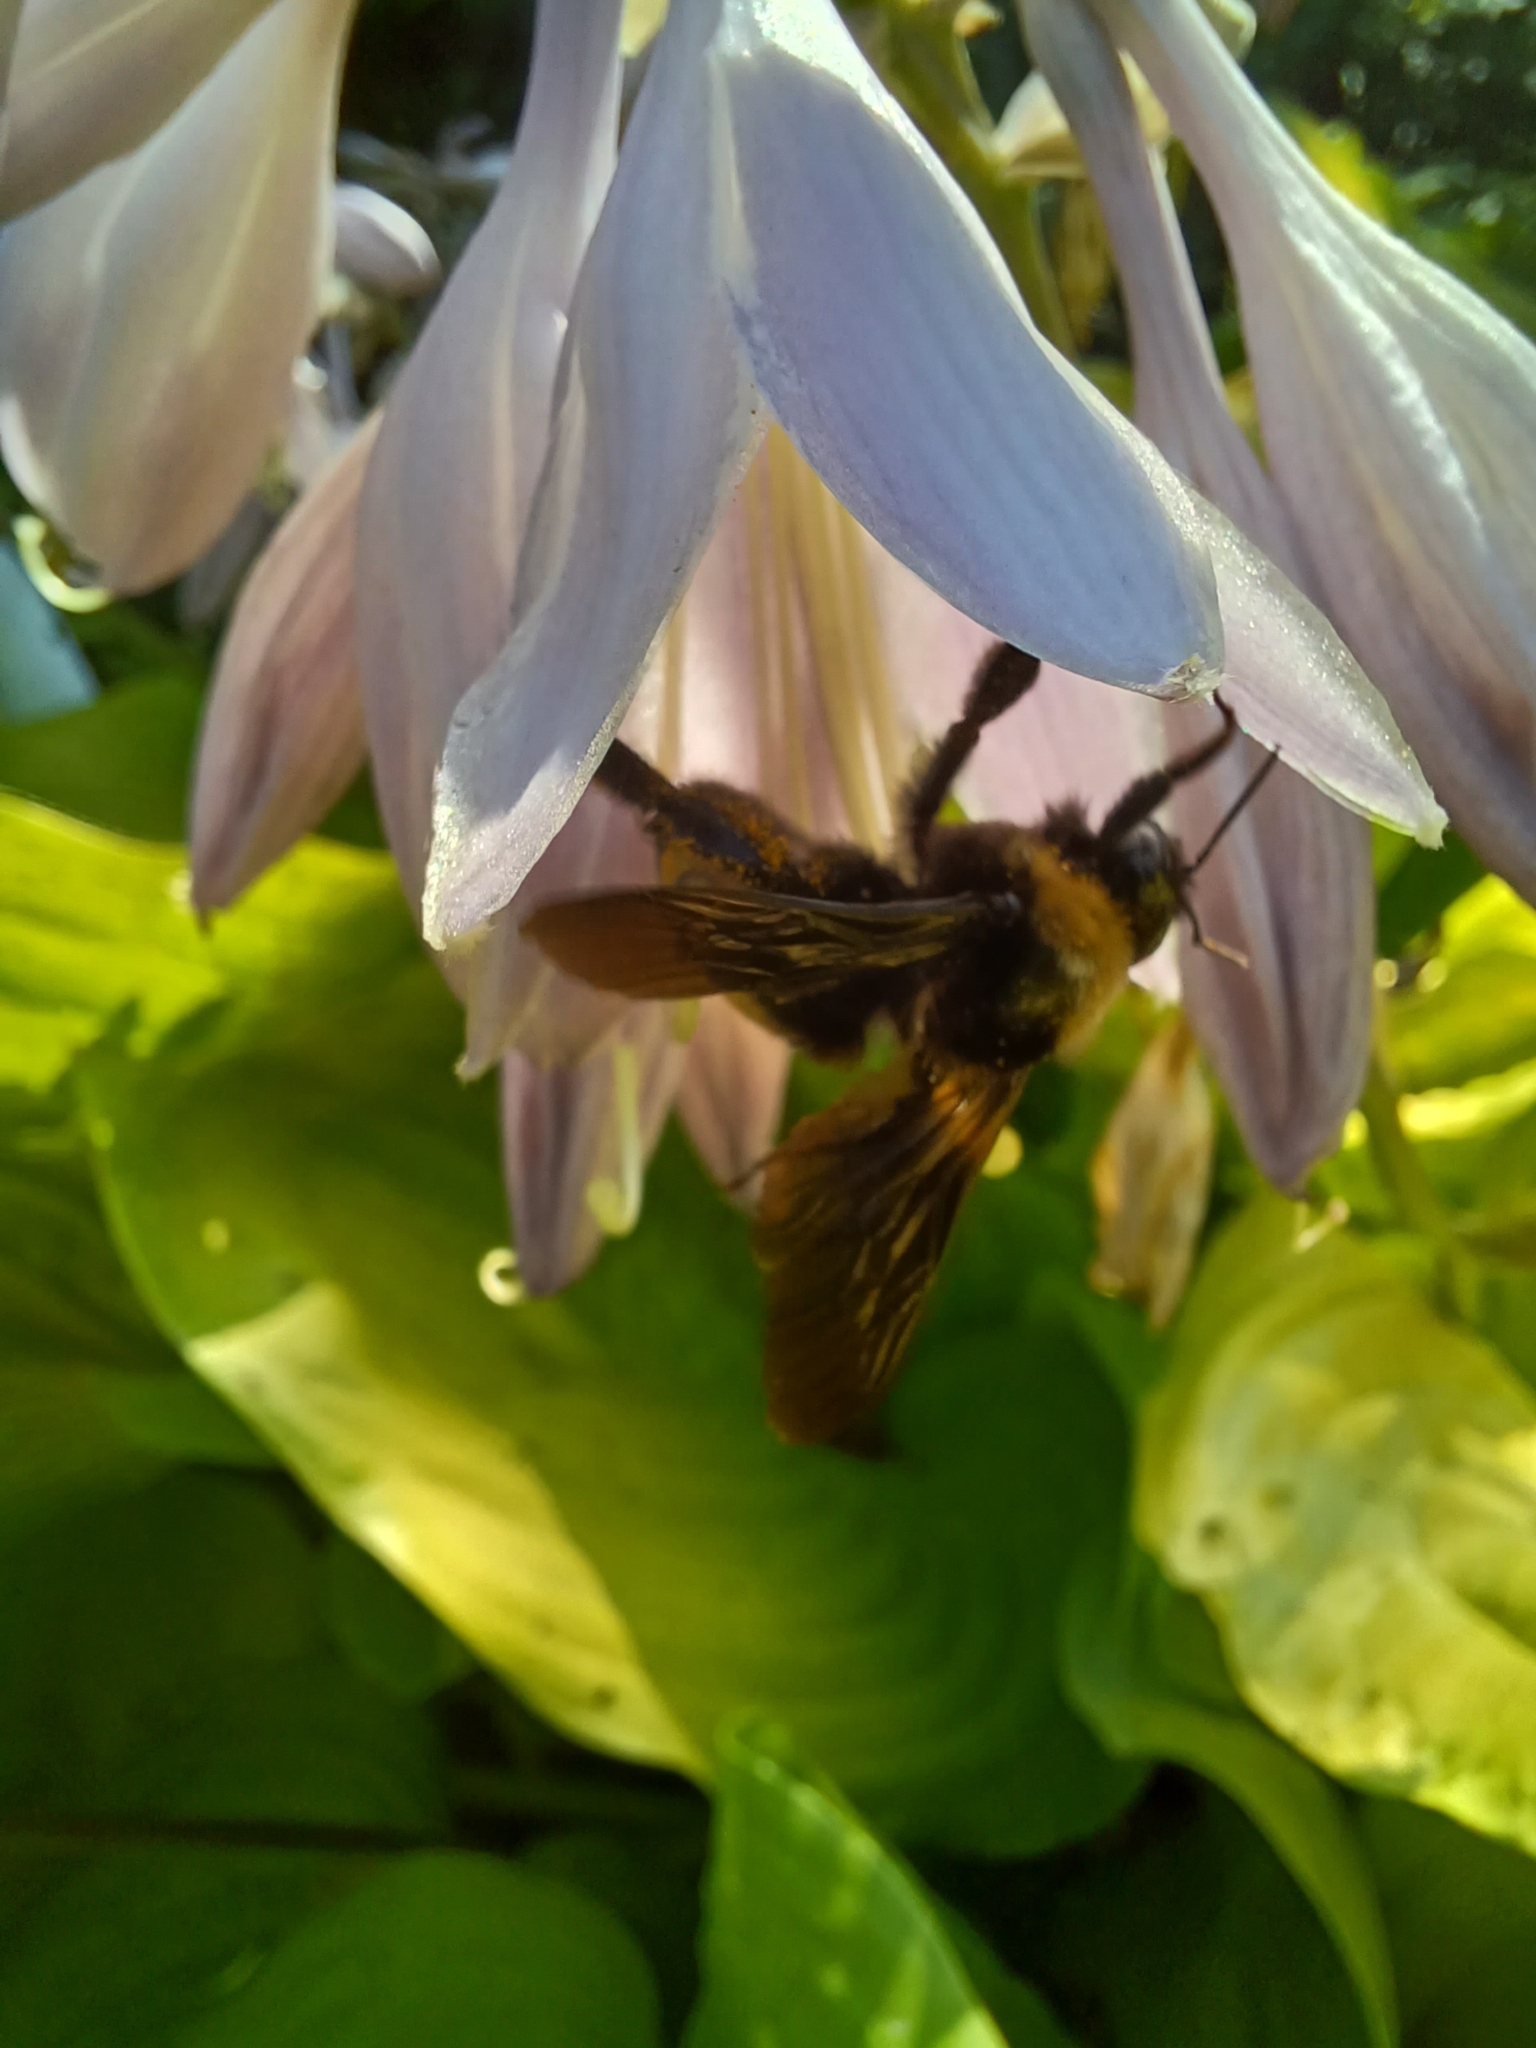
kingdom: Animalia
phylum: Arthropoda
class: Insecta
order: Hymenoptera
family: Apidae
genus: Bombus
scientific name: Bombus pensylvanicus
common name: Bumble bee
